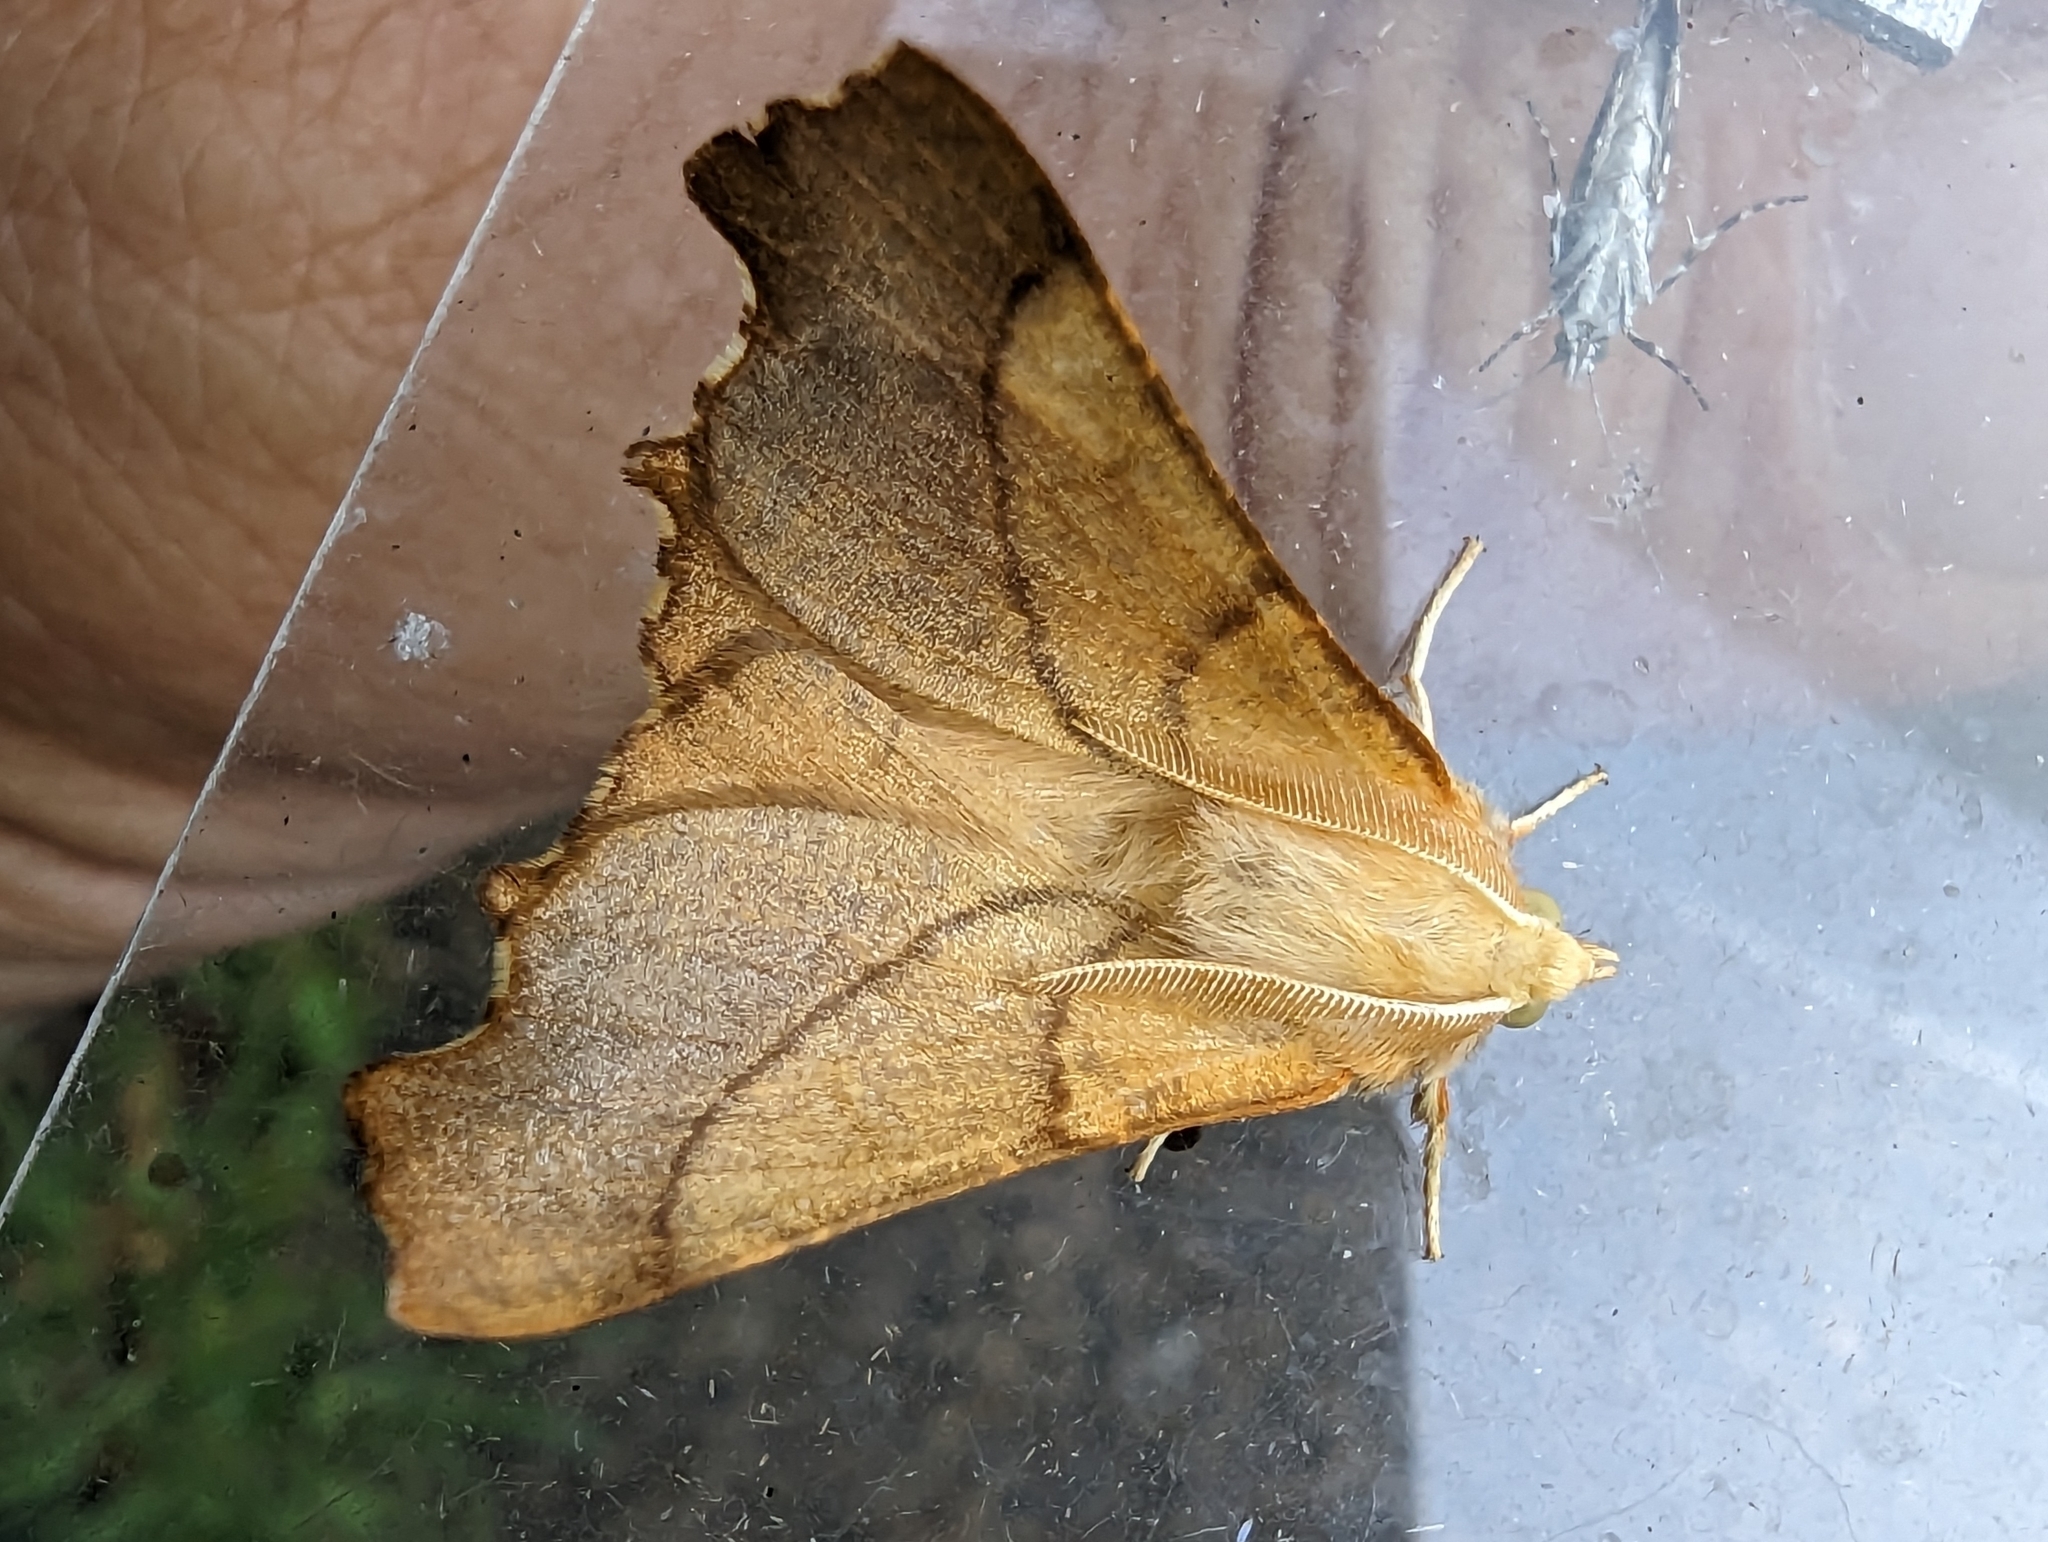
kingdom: Animalia
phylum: Arthropoda
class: Insecta
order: Lepidoptera
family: Geometridae
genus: Ennomos
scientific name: Ennomos fuscantaria
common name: Dusky thorn
